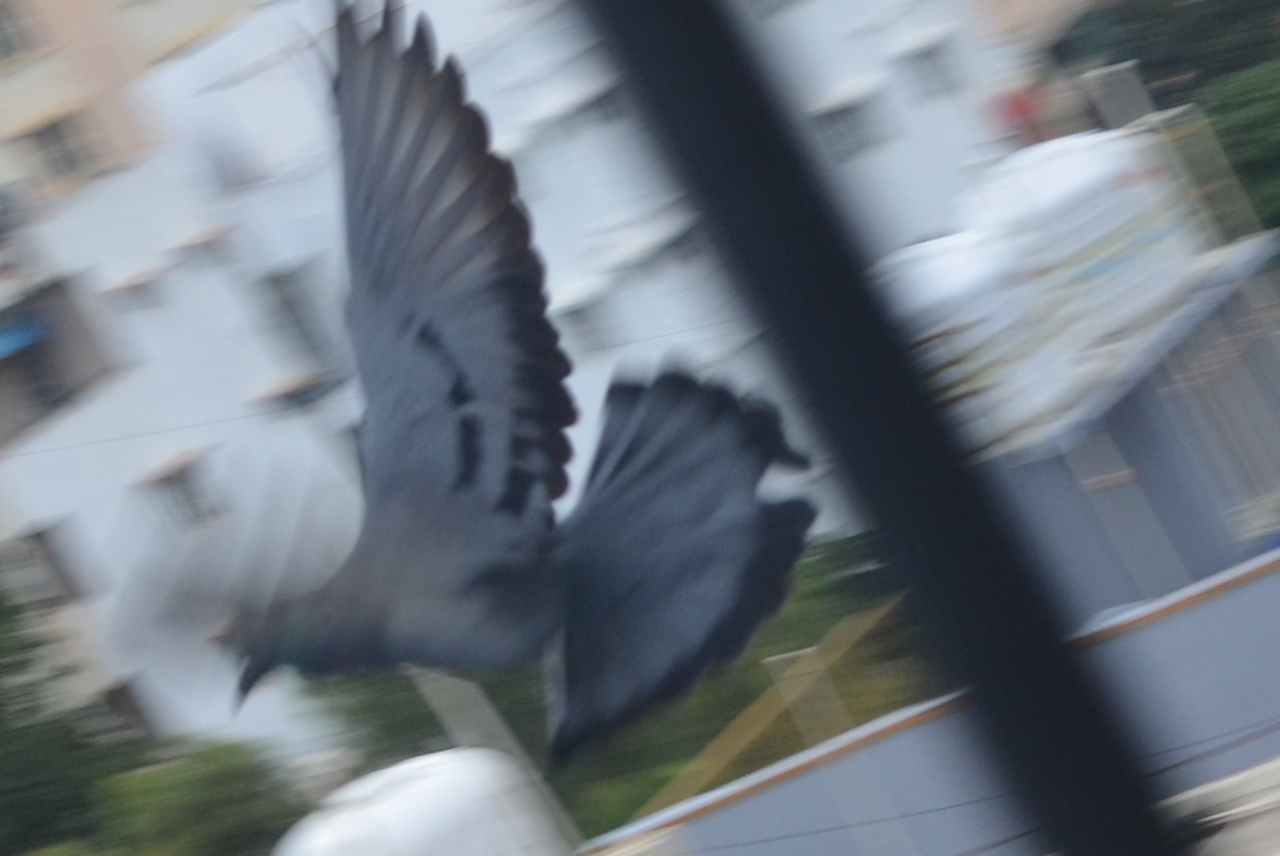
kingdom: Animalia
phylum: Chordata
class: Aves
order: Columbiformes
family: Columbidae
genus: Columba
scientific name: Columba livia
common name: Rock pigeon
